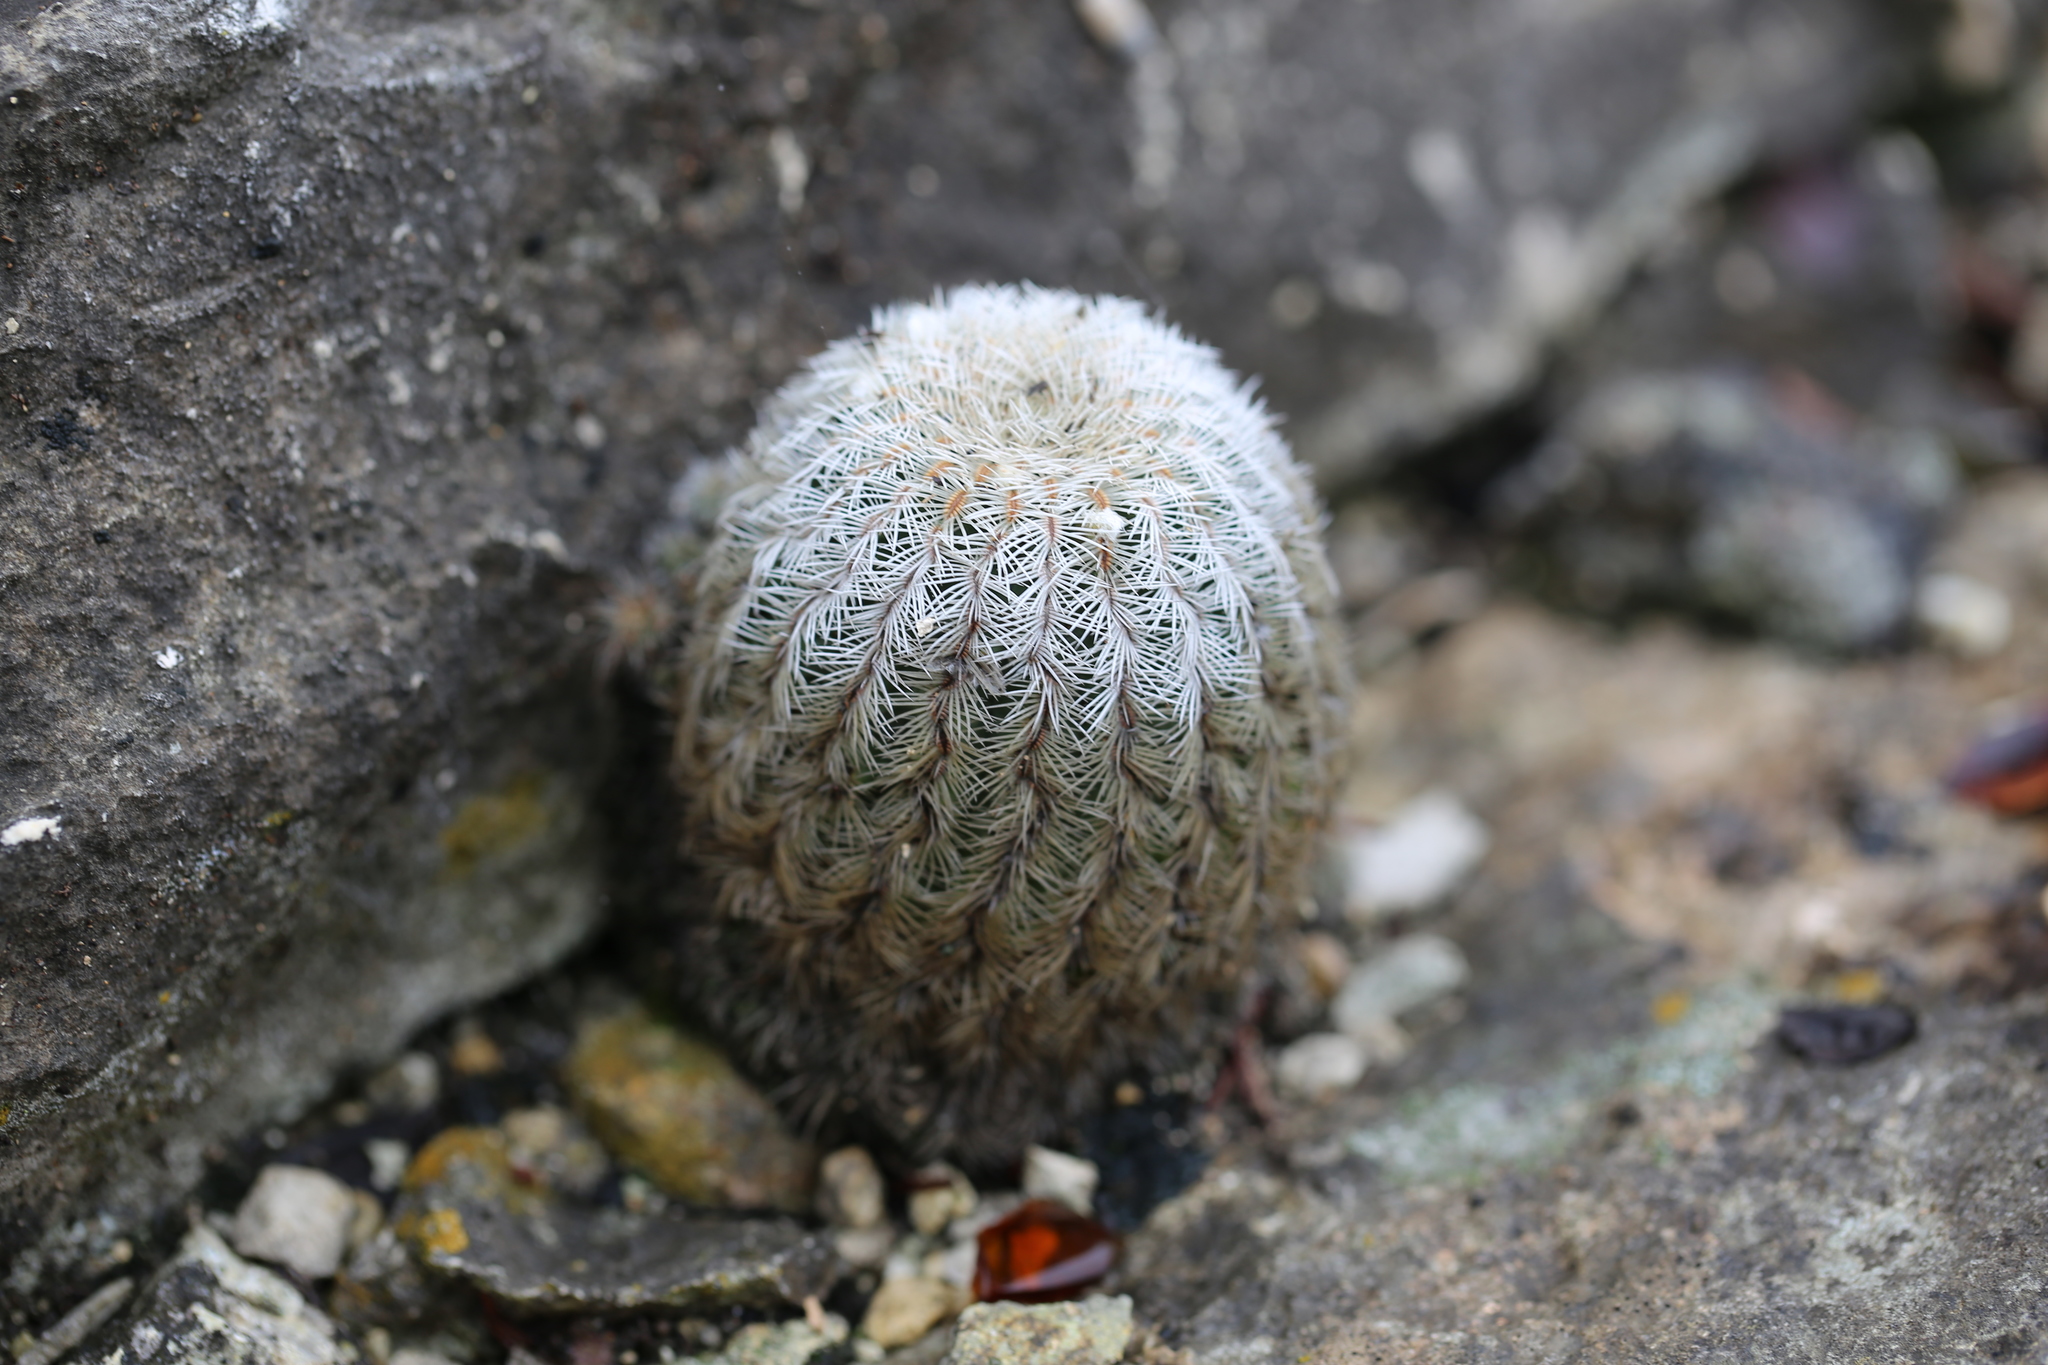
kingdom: Plantae
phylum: Tracheophyta
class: Magnoliopsida
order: Caryophyllales
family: Cactaceae
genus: Echinocereus
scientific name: Echinocereus reichenbachii
